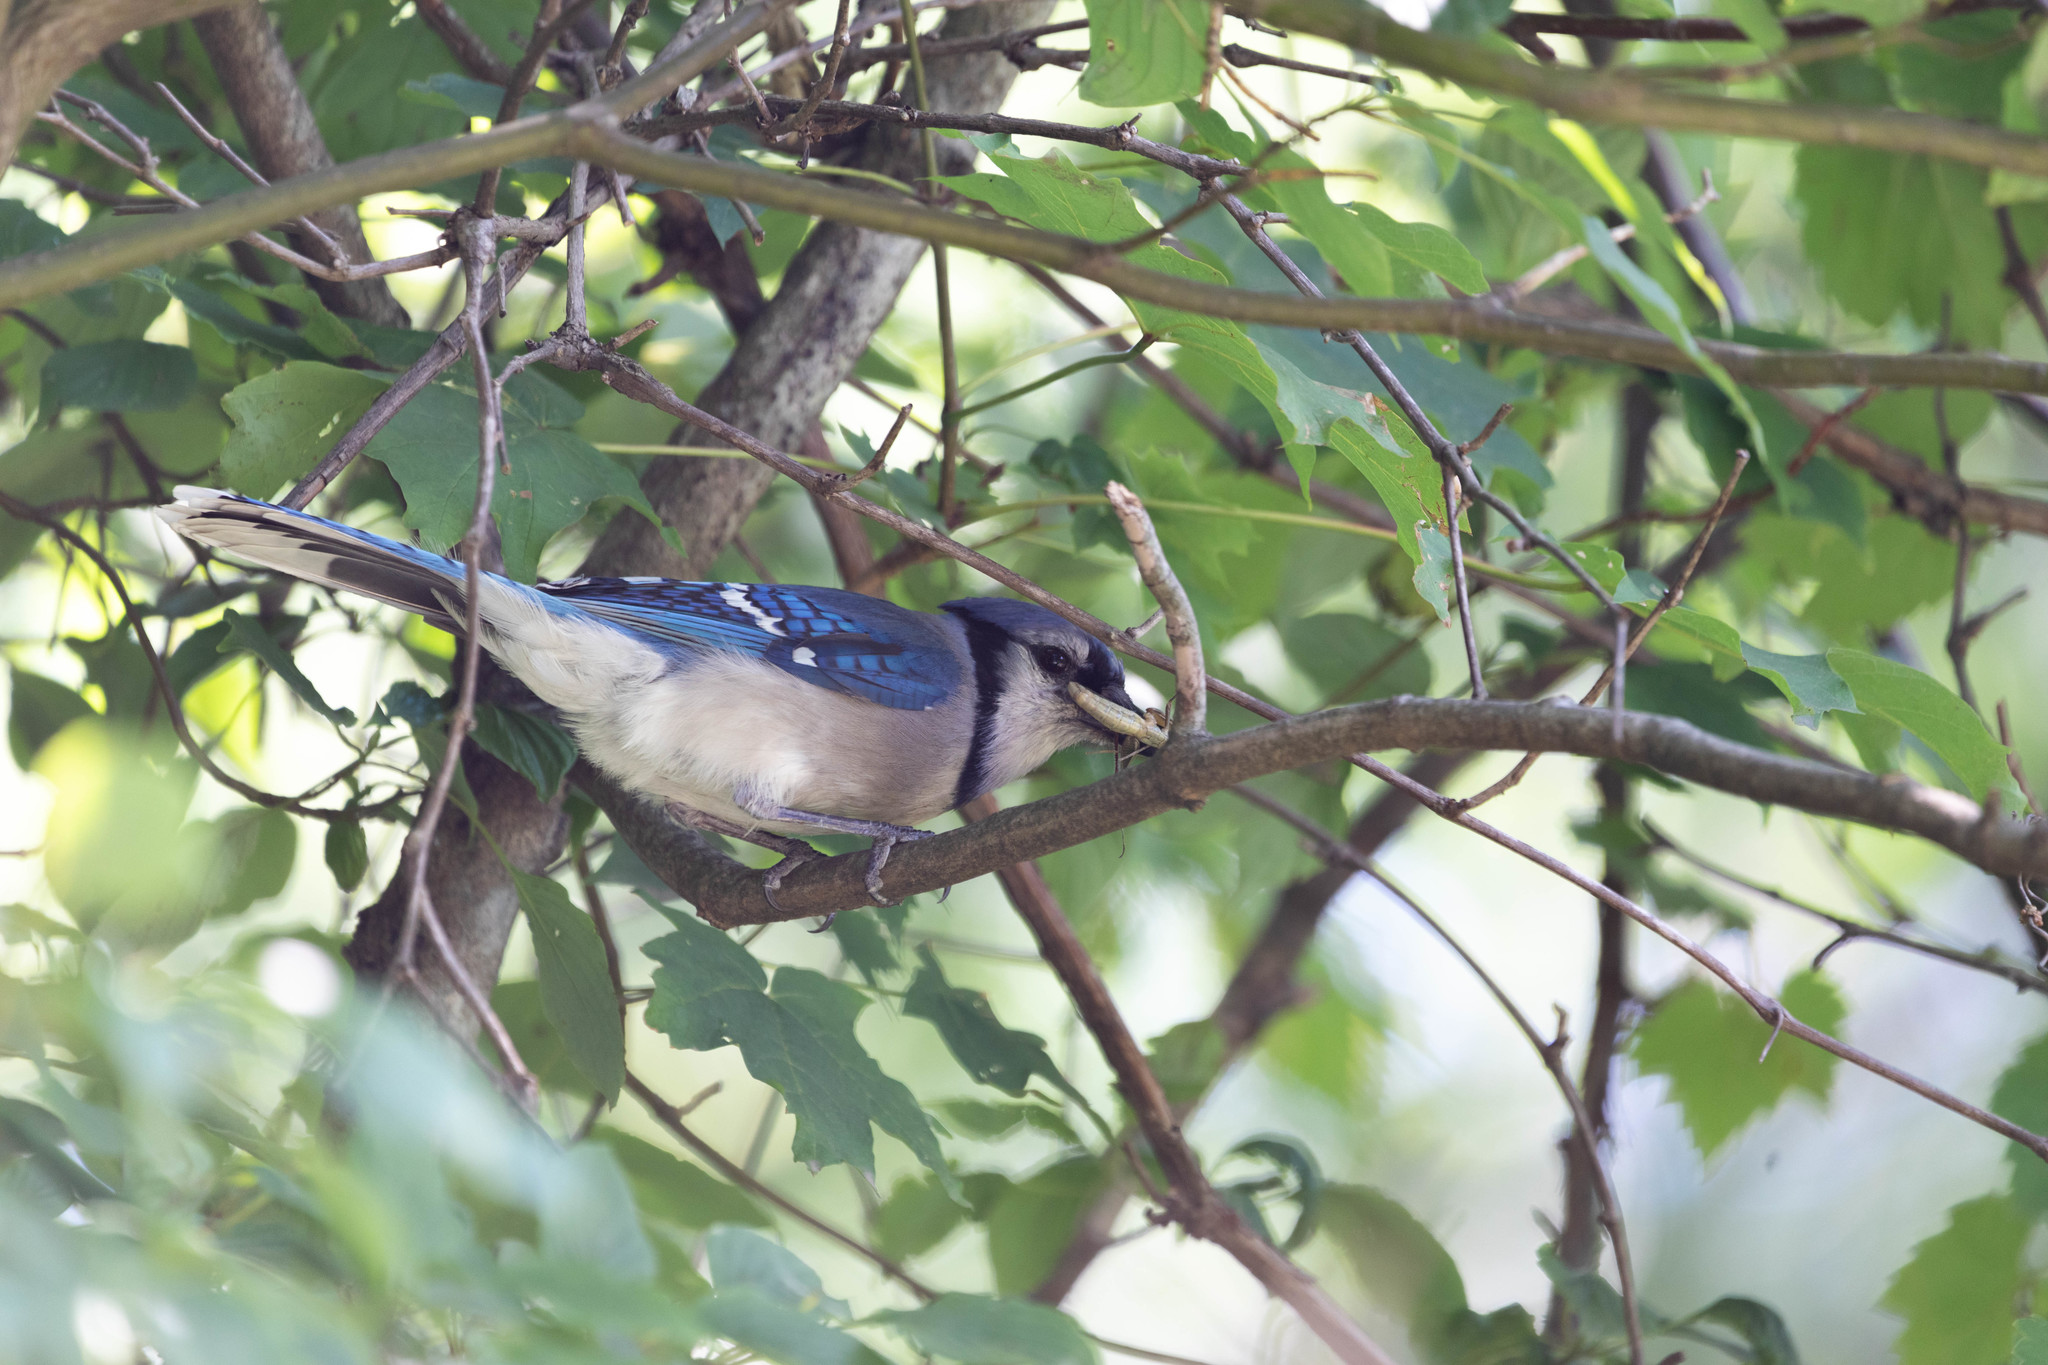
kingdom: Animalia
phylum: Chordata
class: Aves
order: Passeriformes
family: Corvidae
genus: Cyanocitta
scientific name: Cyanocitta cristata
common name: Blue jay
